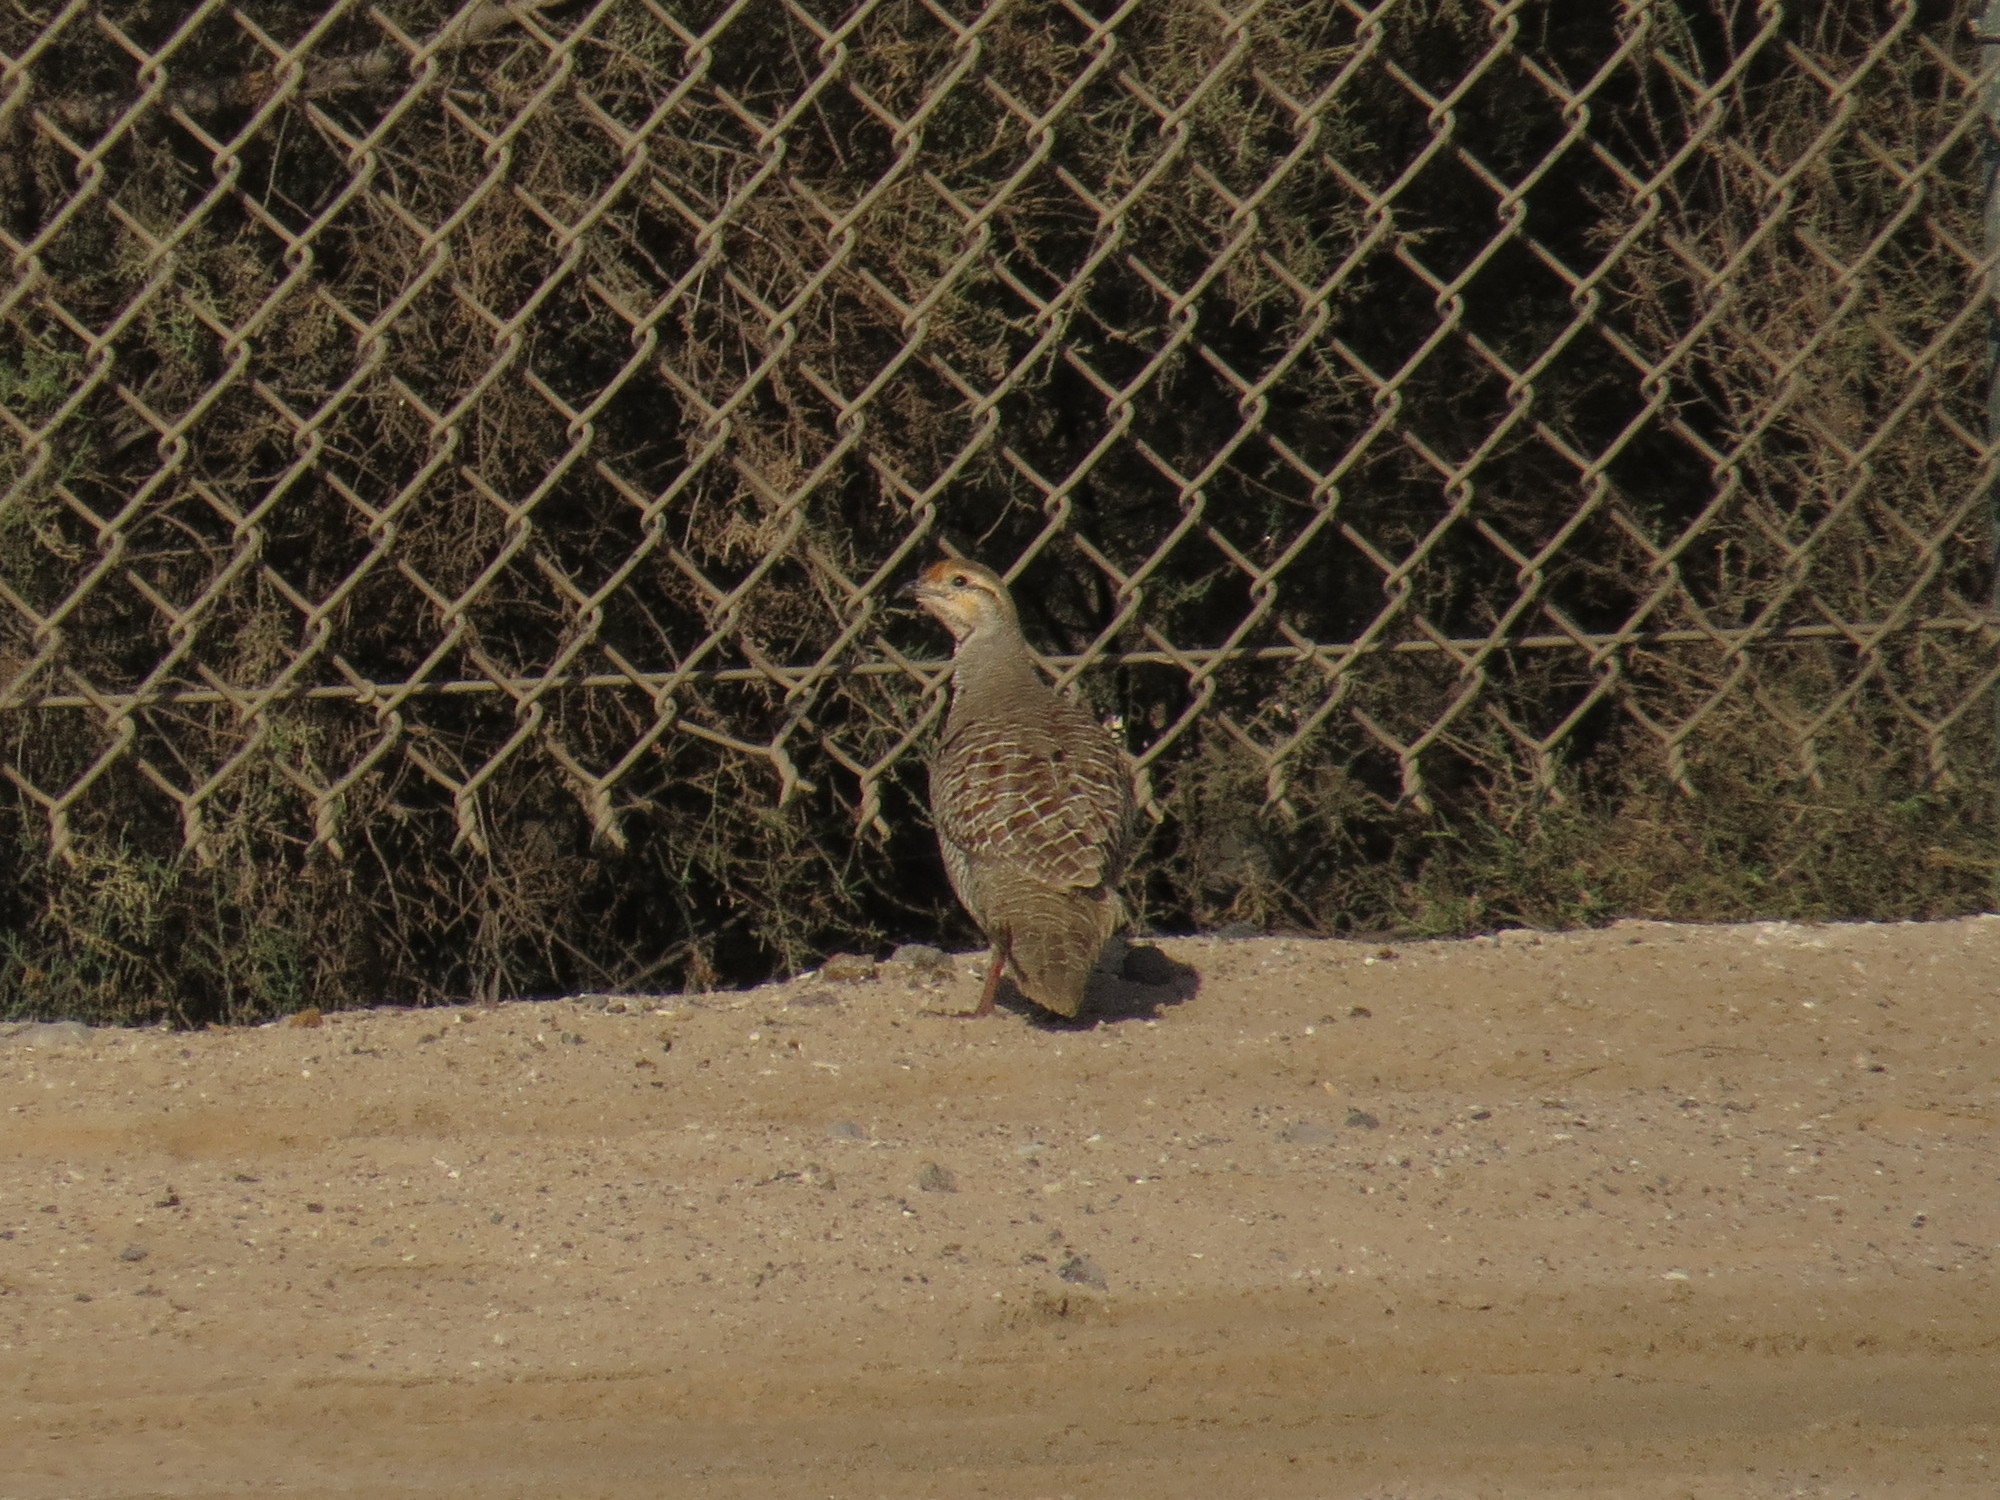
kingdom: Animalia
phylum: Chordata
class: Aves
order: Galliformes
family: Phasianidae
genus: Ortygornis
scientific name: Ortygornis pondicerianus
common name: Grey francolin
